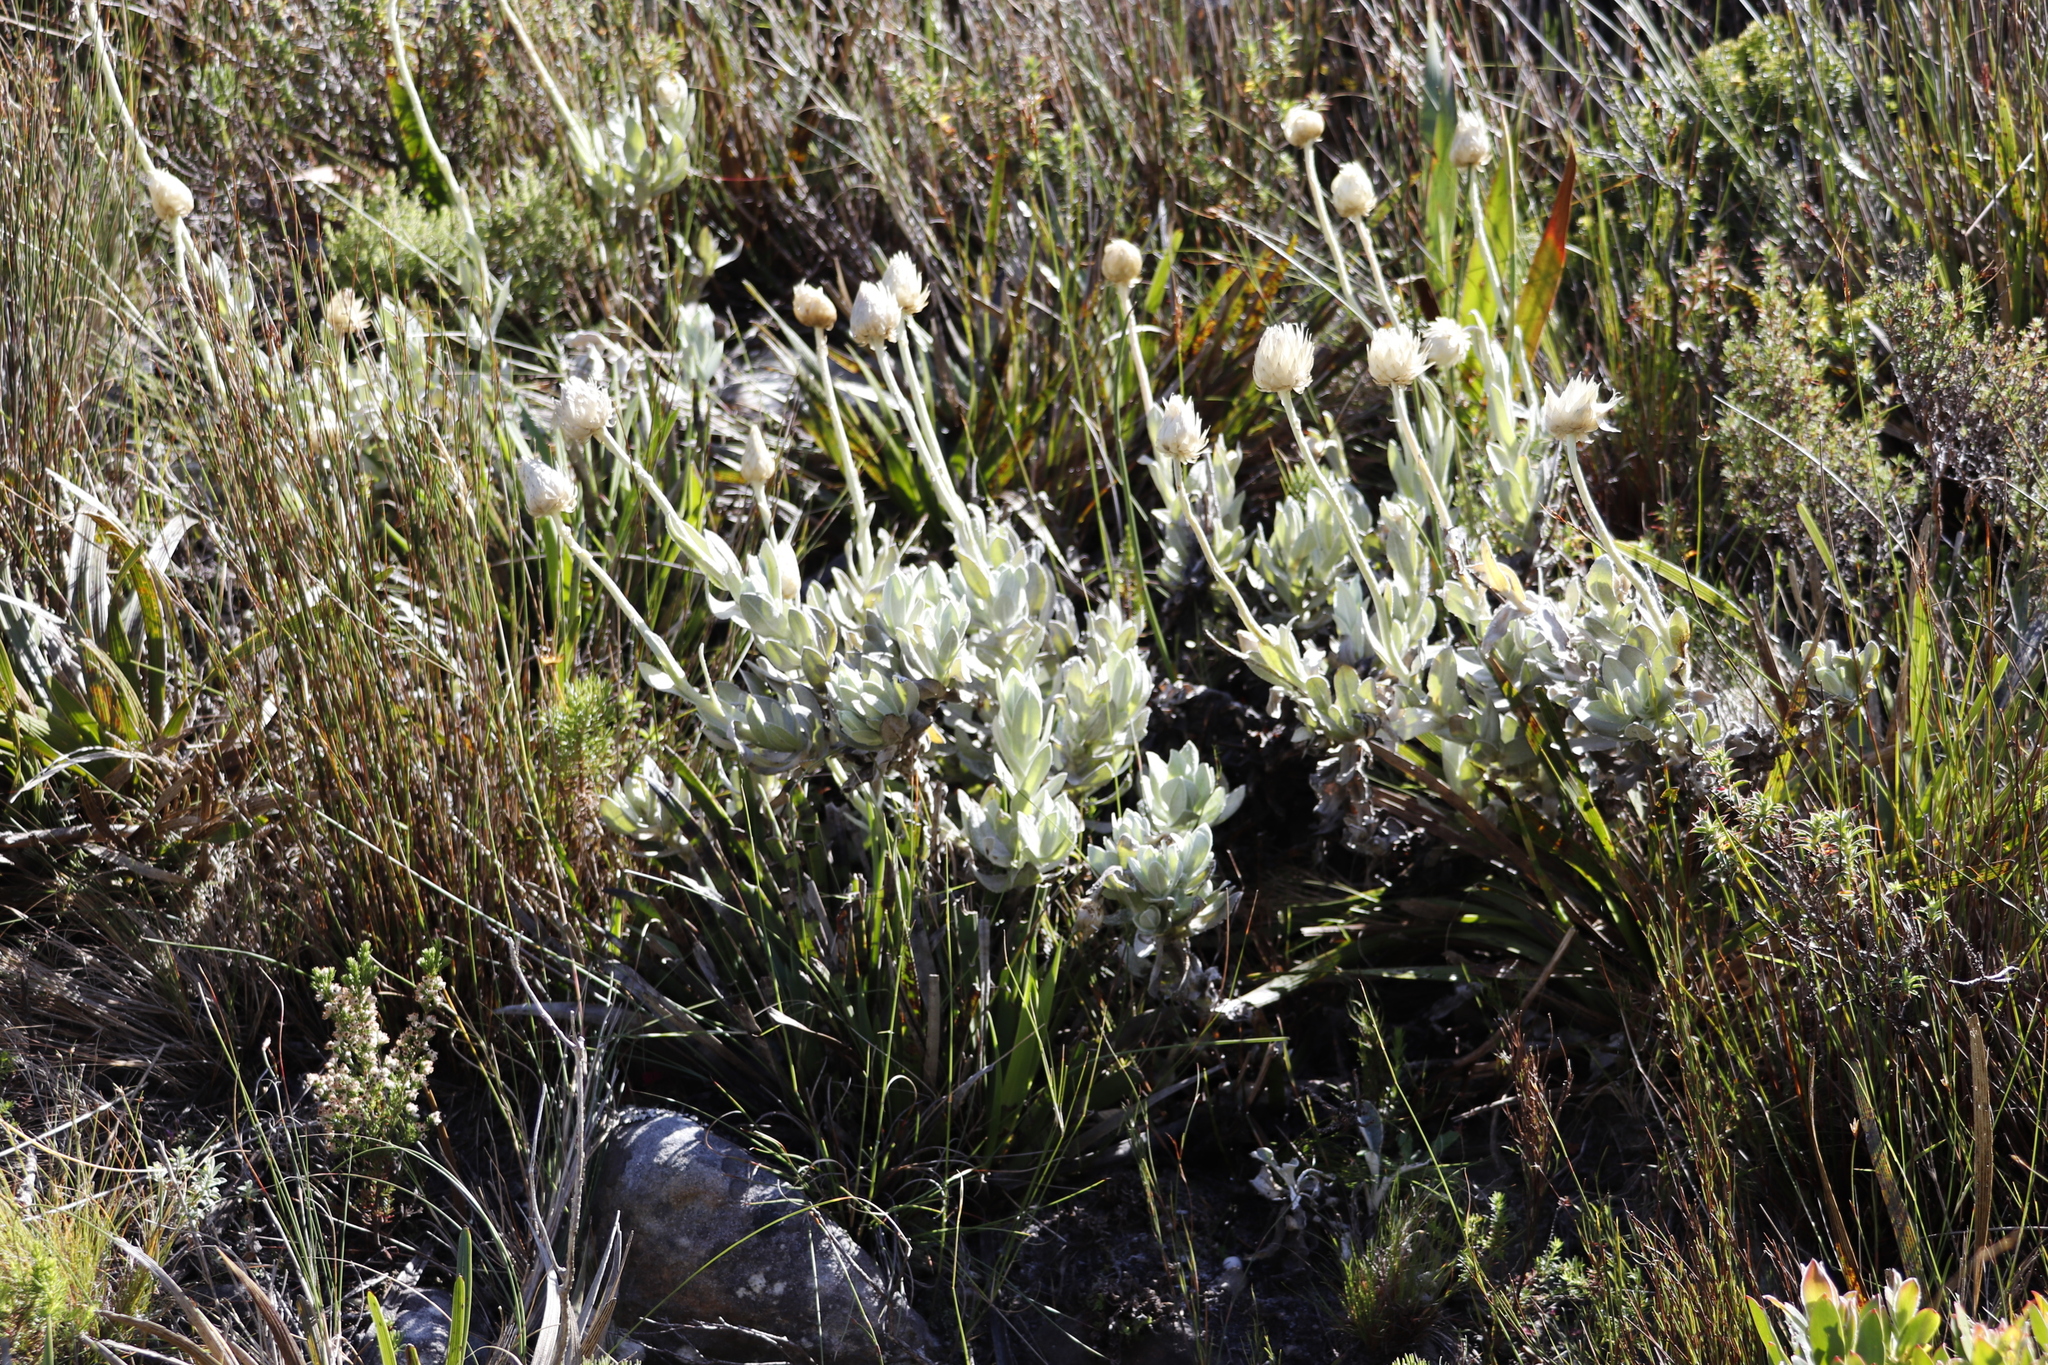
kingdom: Plantae
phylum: Tracheophyta
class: Magnoliopsida
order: Asterales
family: Asteraceae
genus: Syncarpha
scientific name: Syncarpha speciosissima
